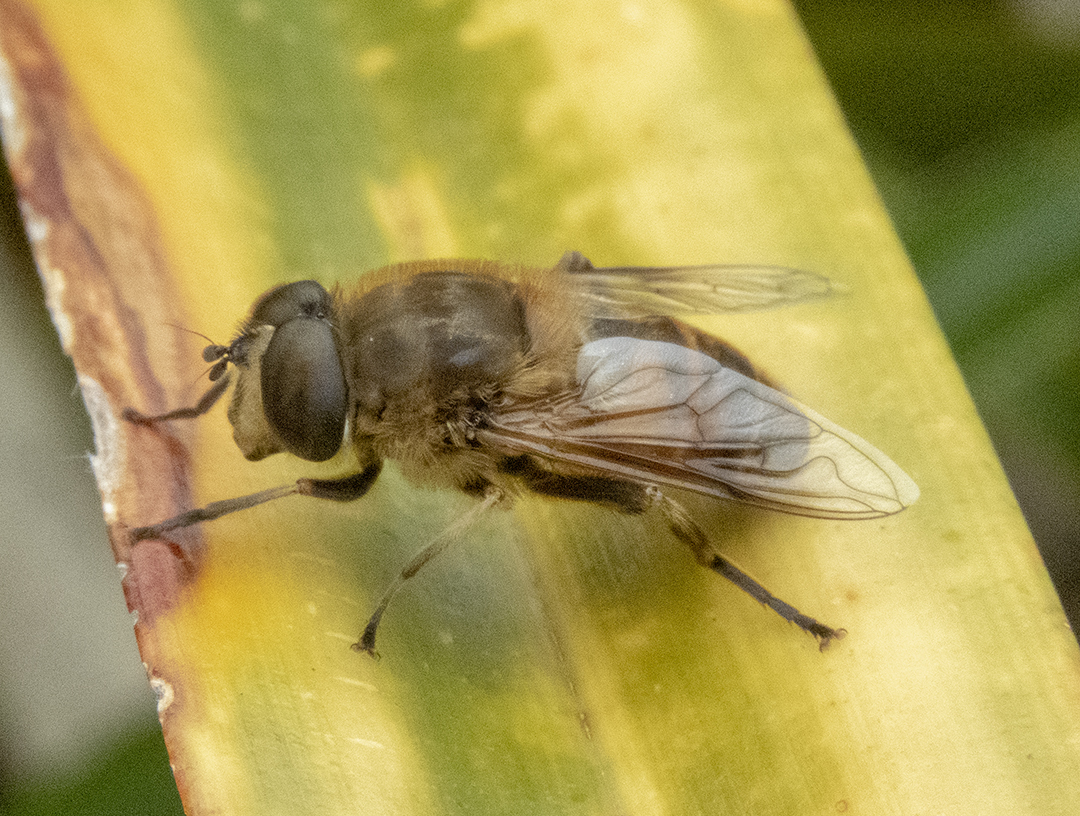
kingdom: Animalia
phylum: Arthropoda
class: Insecta
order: Diptera
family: Syrphidae
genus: Eristalis
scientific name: Eristalis tenax
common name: Drone fly
